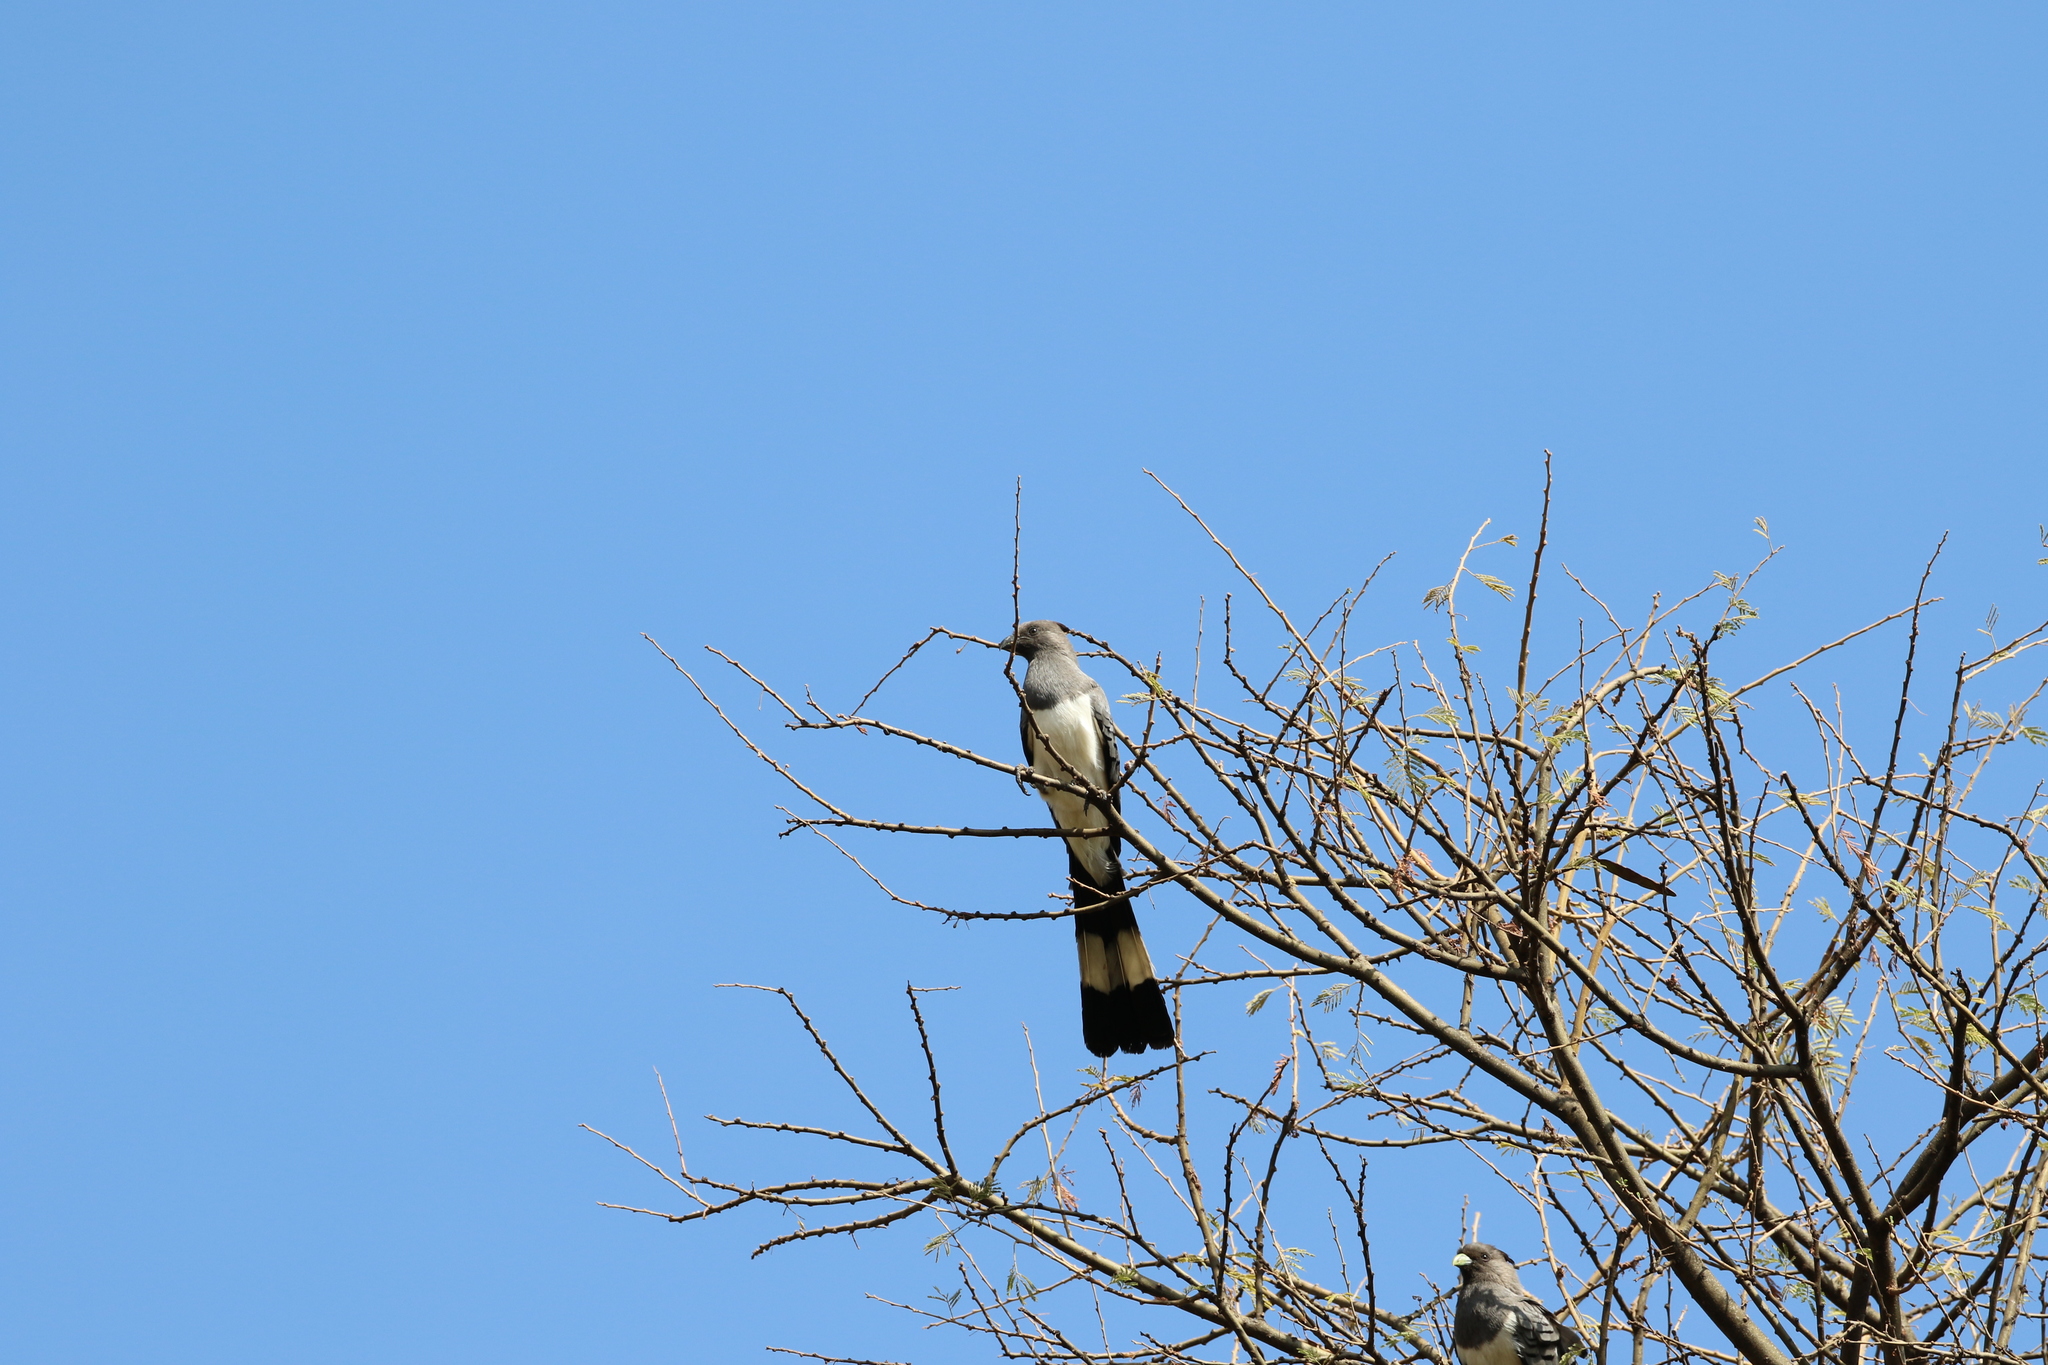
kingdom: Animalia
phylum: Chordata
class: Aves
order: Musophagiformes
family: Musophagidae
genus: Corythaixoides
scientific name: Corythaixoides leucogaster
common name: White-bellied go-away-bird
